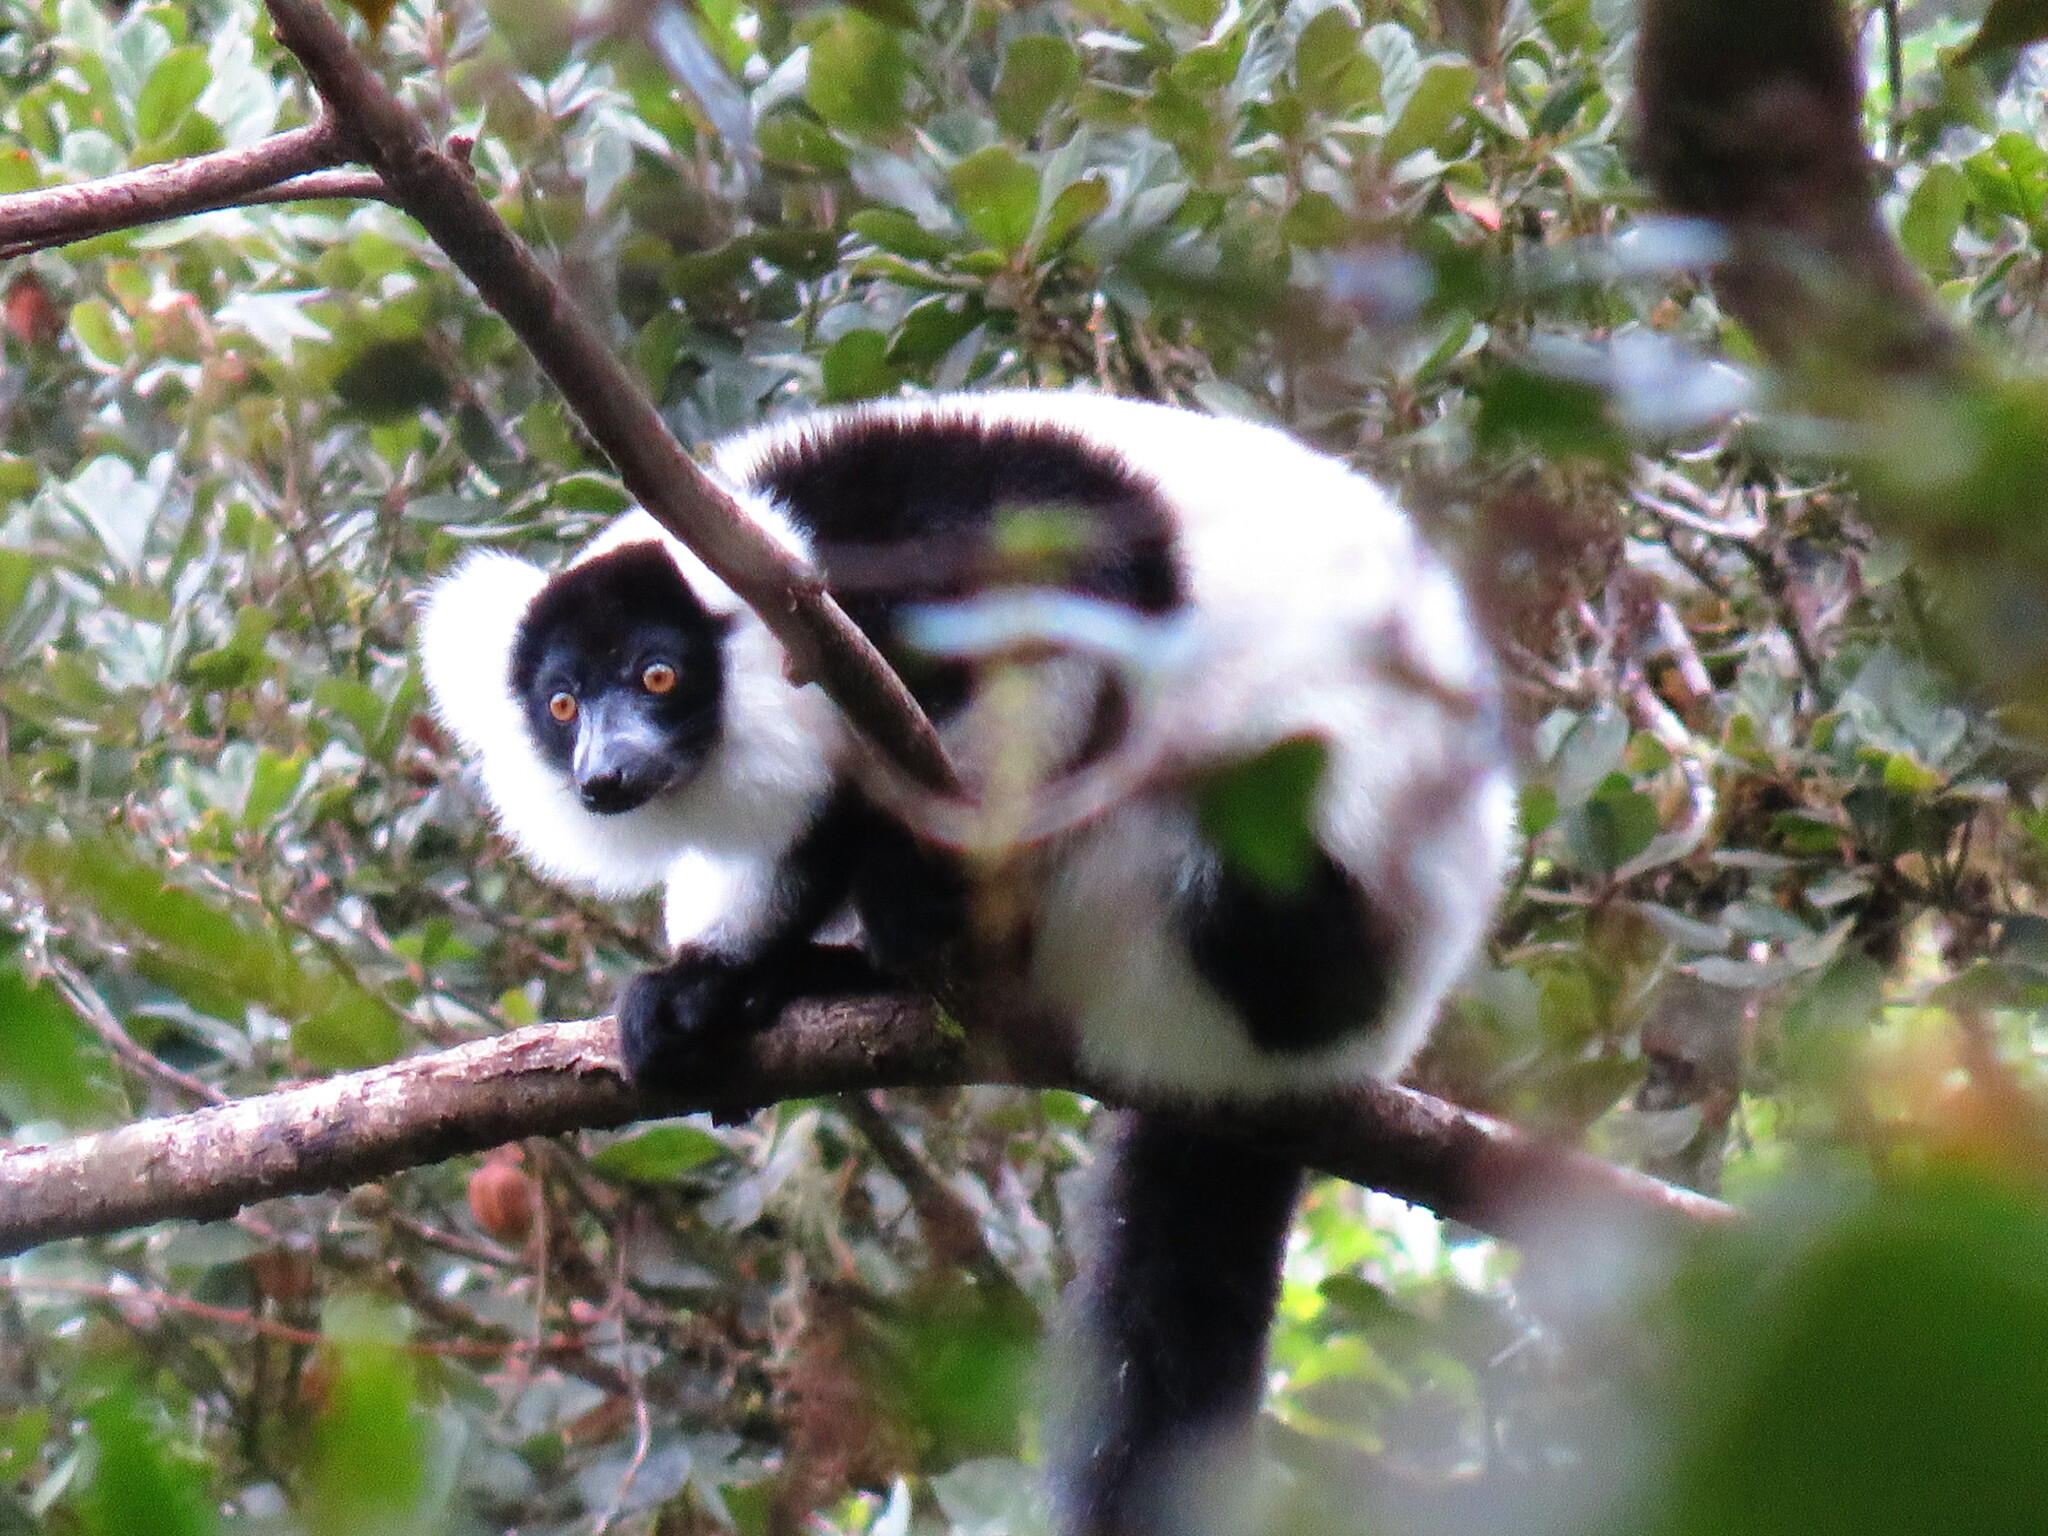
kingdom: Animalia
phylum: Chordata
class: Mammalia
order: Primates
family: Lemuridae
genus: Varecia
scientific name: Varecia variegata
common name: Black-and-white ruffed lemur
